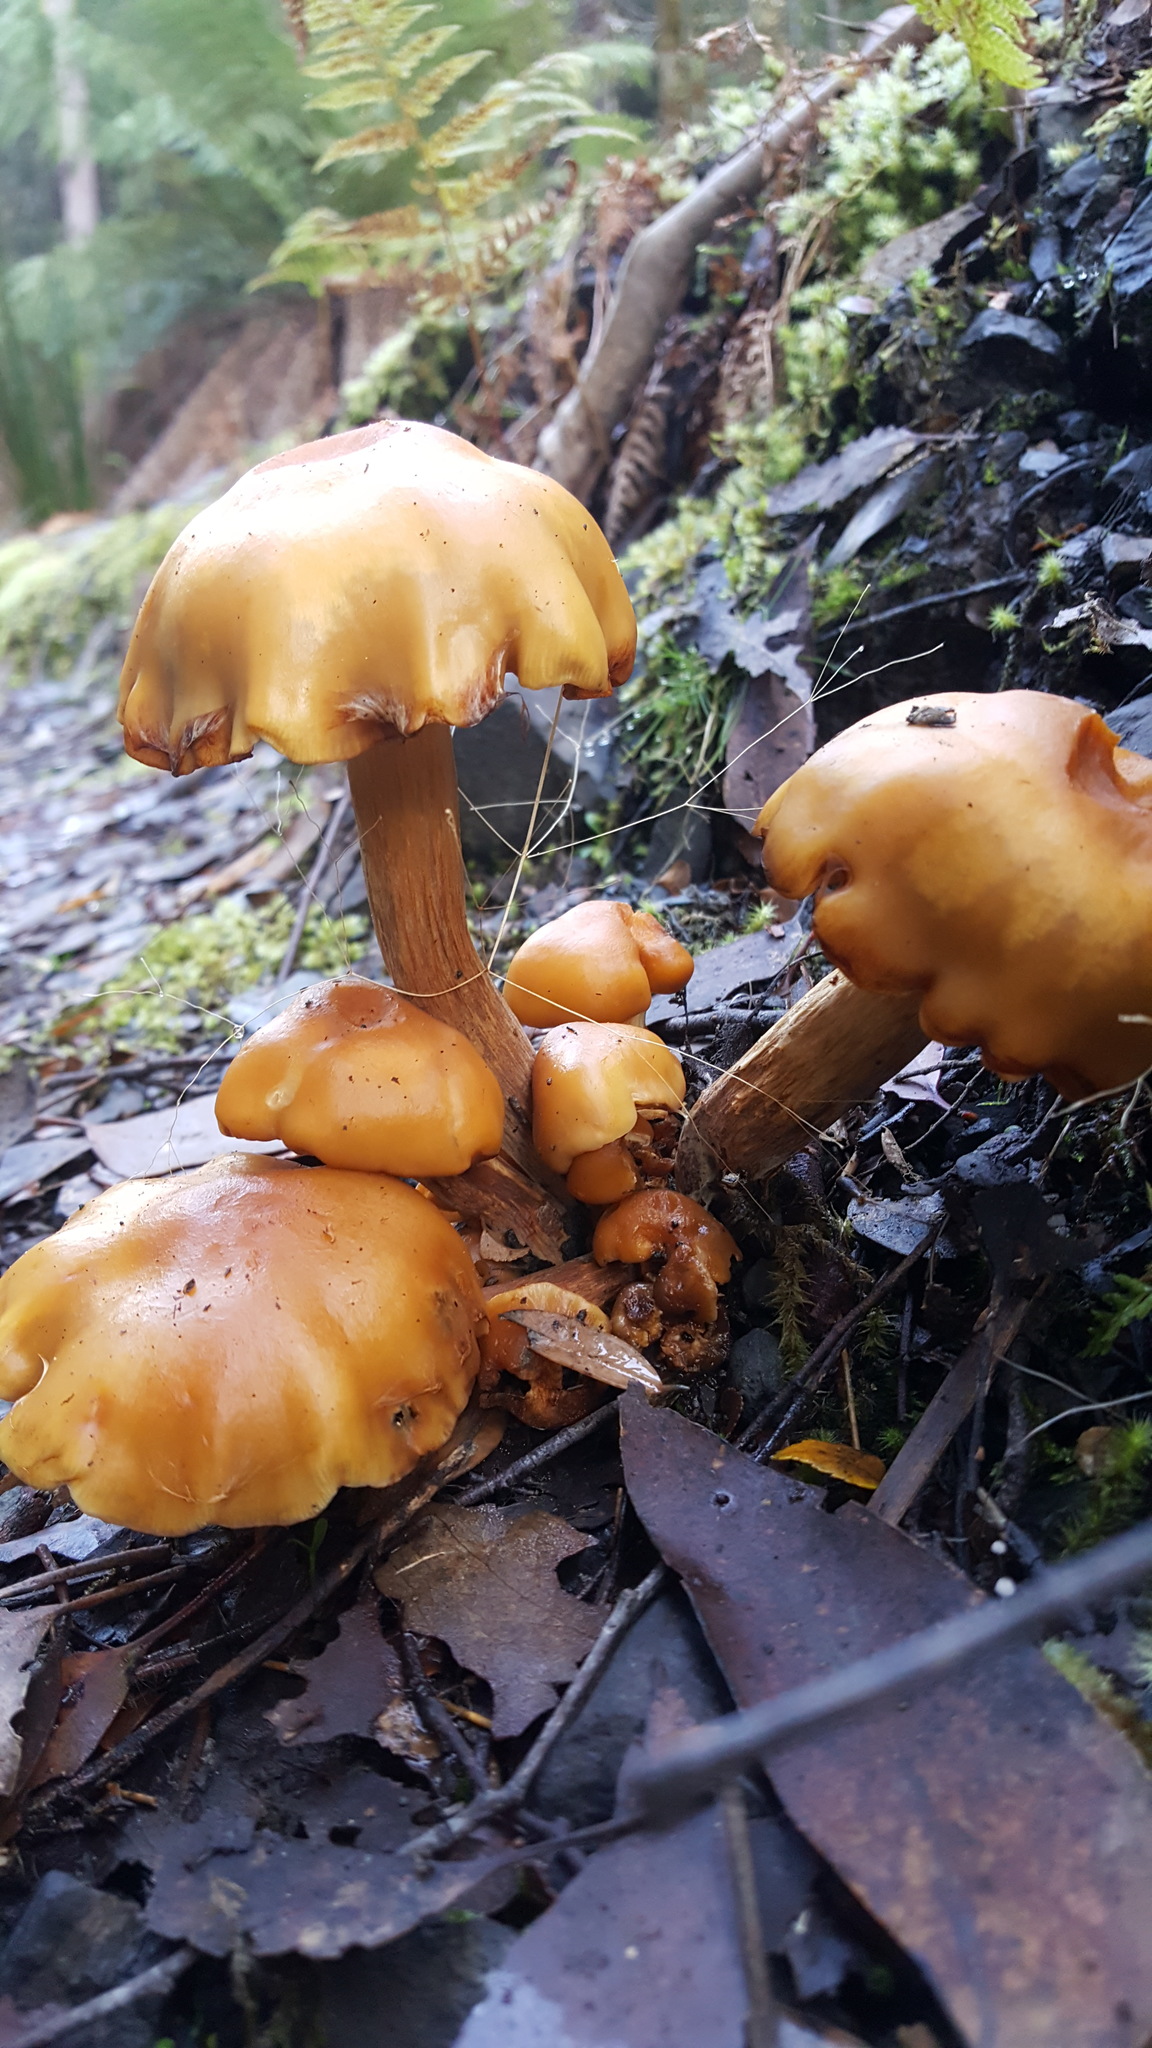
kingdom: Fungi
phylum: Basidiomycota
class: Agaricomycetes
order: Agaricales
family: Strophariaceae
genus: Pholiota
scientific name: Pholiota malicola
